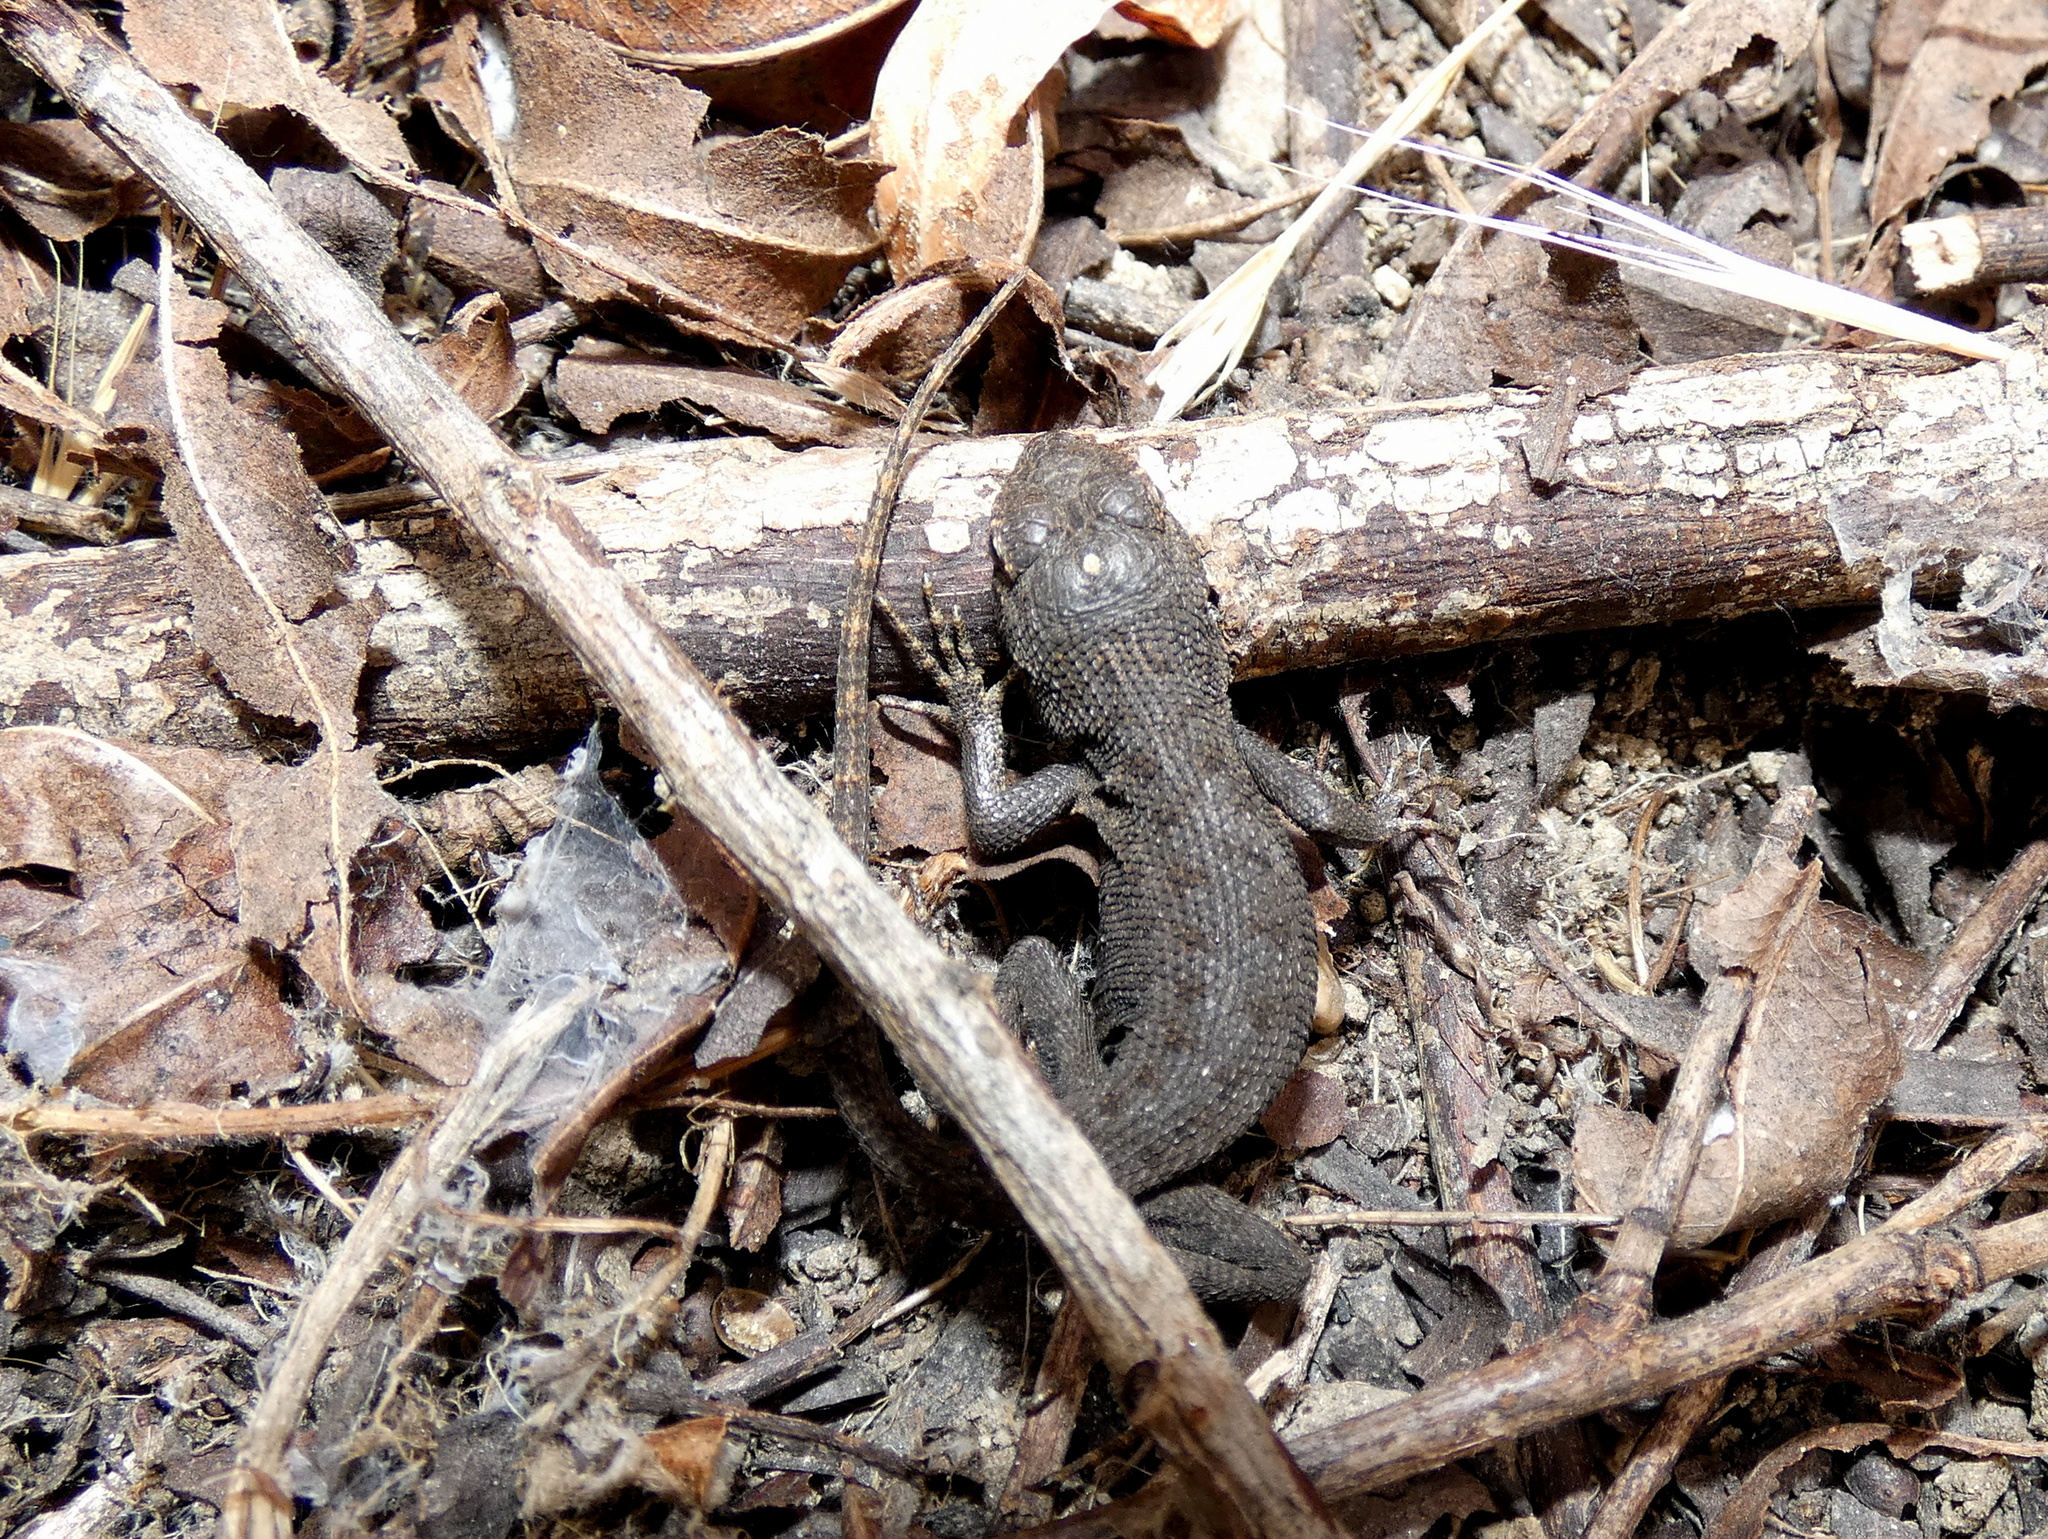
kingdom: Animalia
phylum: Chordata
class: Squamata
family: Phrynosomatidae
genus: Sceloporus
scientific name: Sceloporus occidentalis
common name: Western fence lizard
